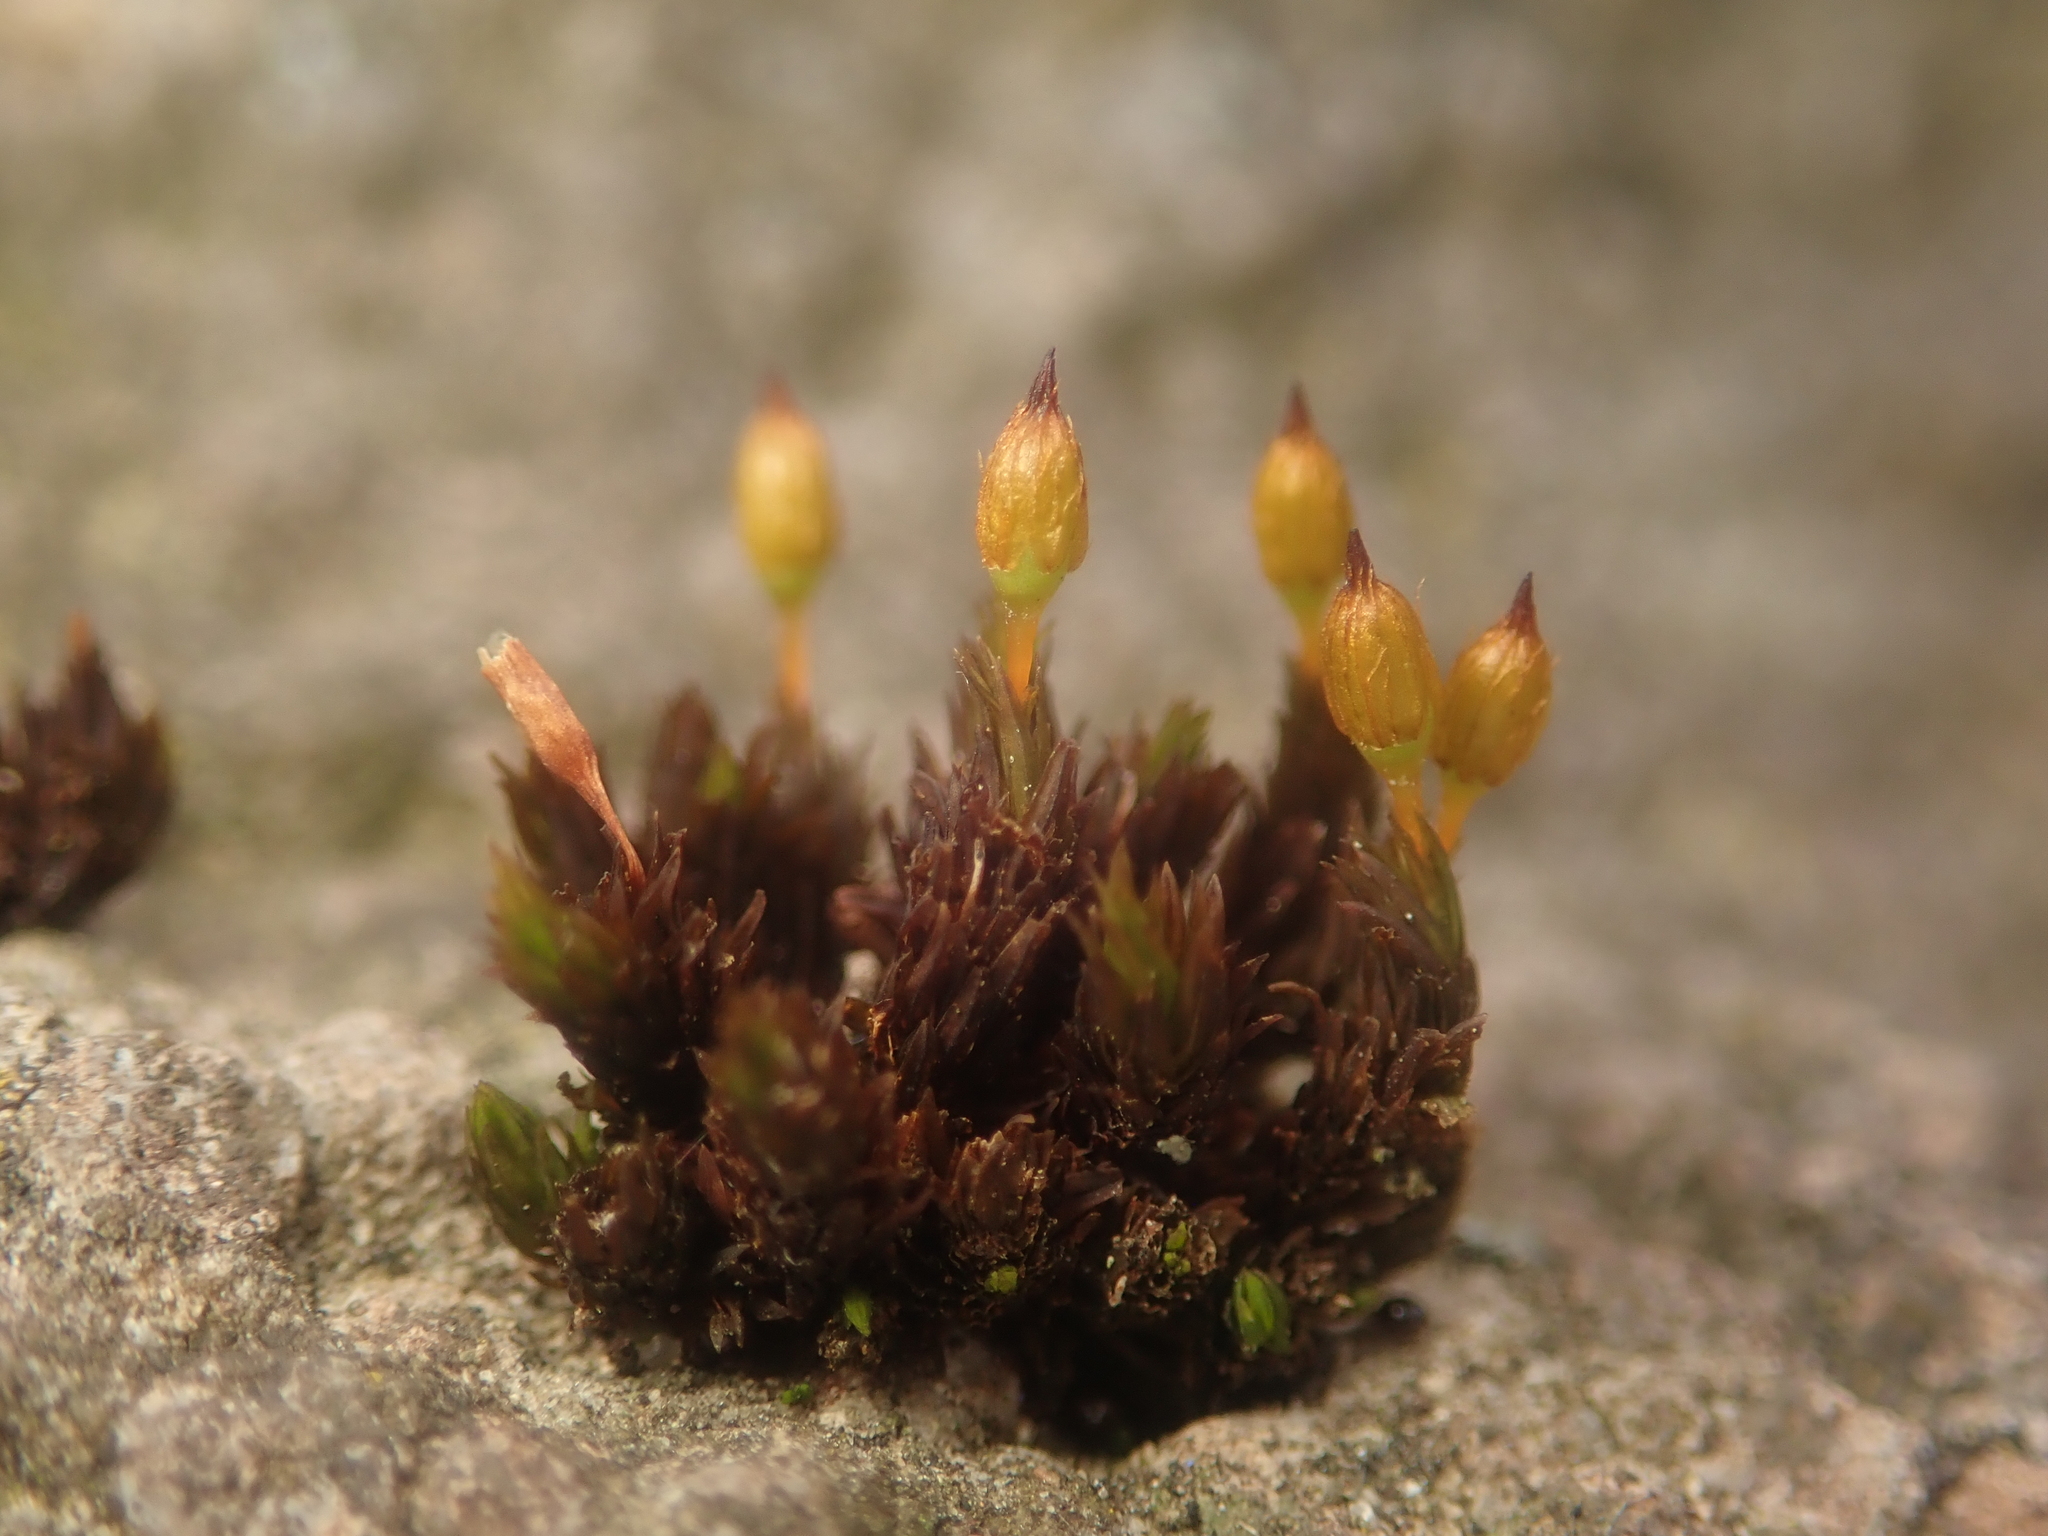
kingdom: Plantae
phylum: Bryophyta
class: Bryopsida
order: Orthotrichales
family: Orthotrichaceae
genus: Orthotrichum
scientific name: Orthotrichum anomalum
